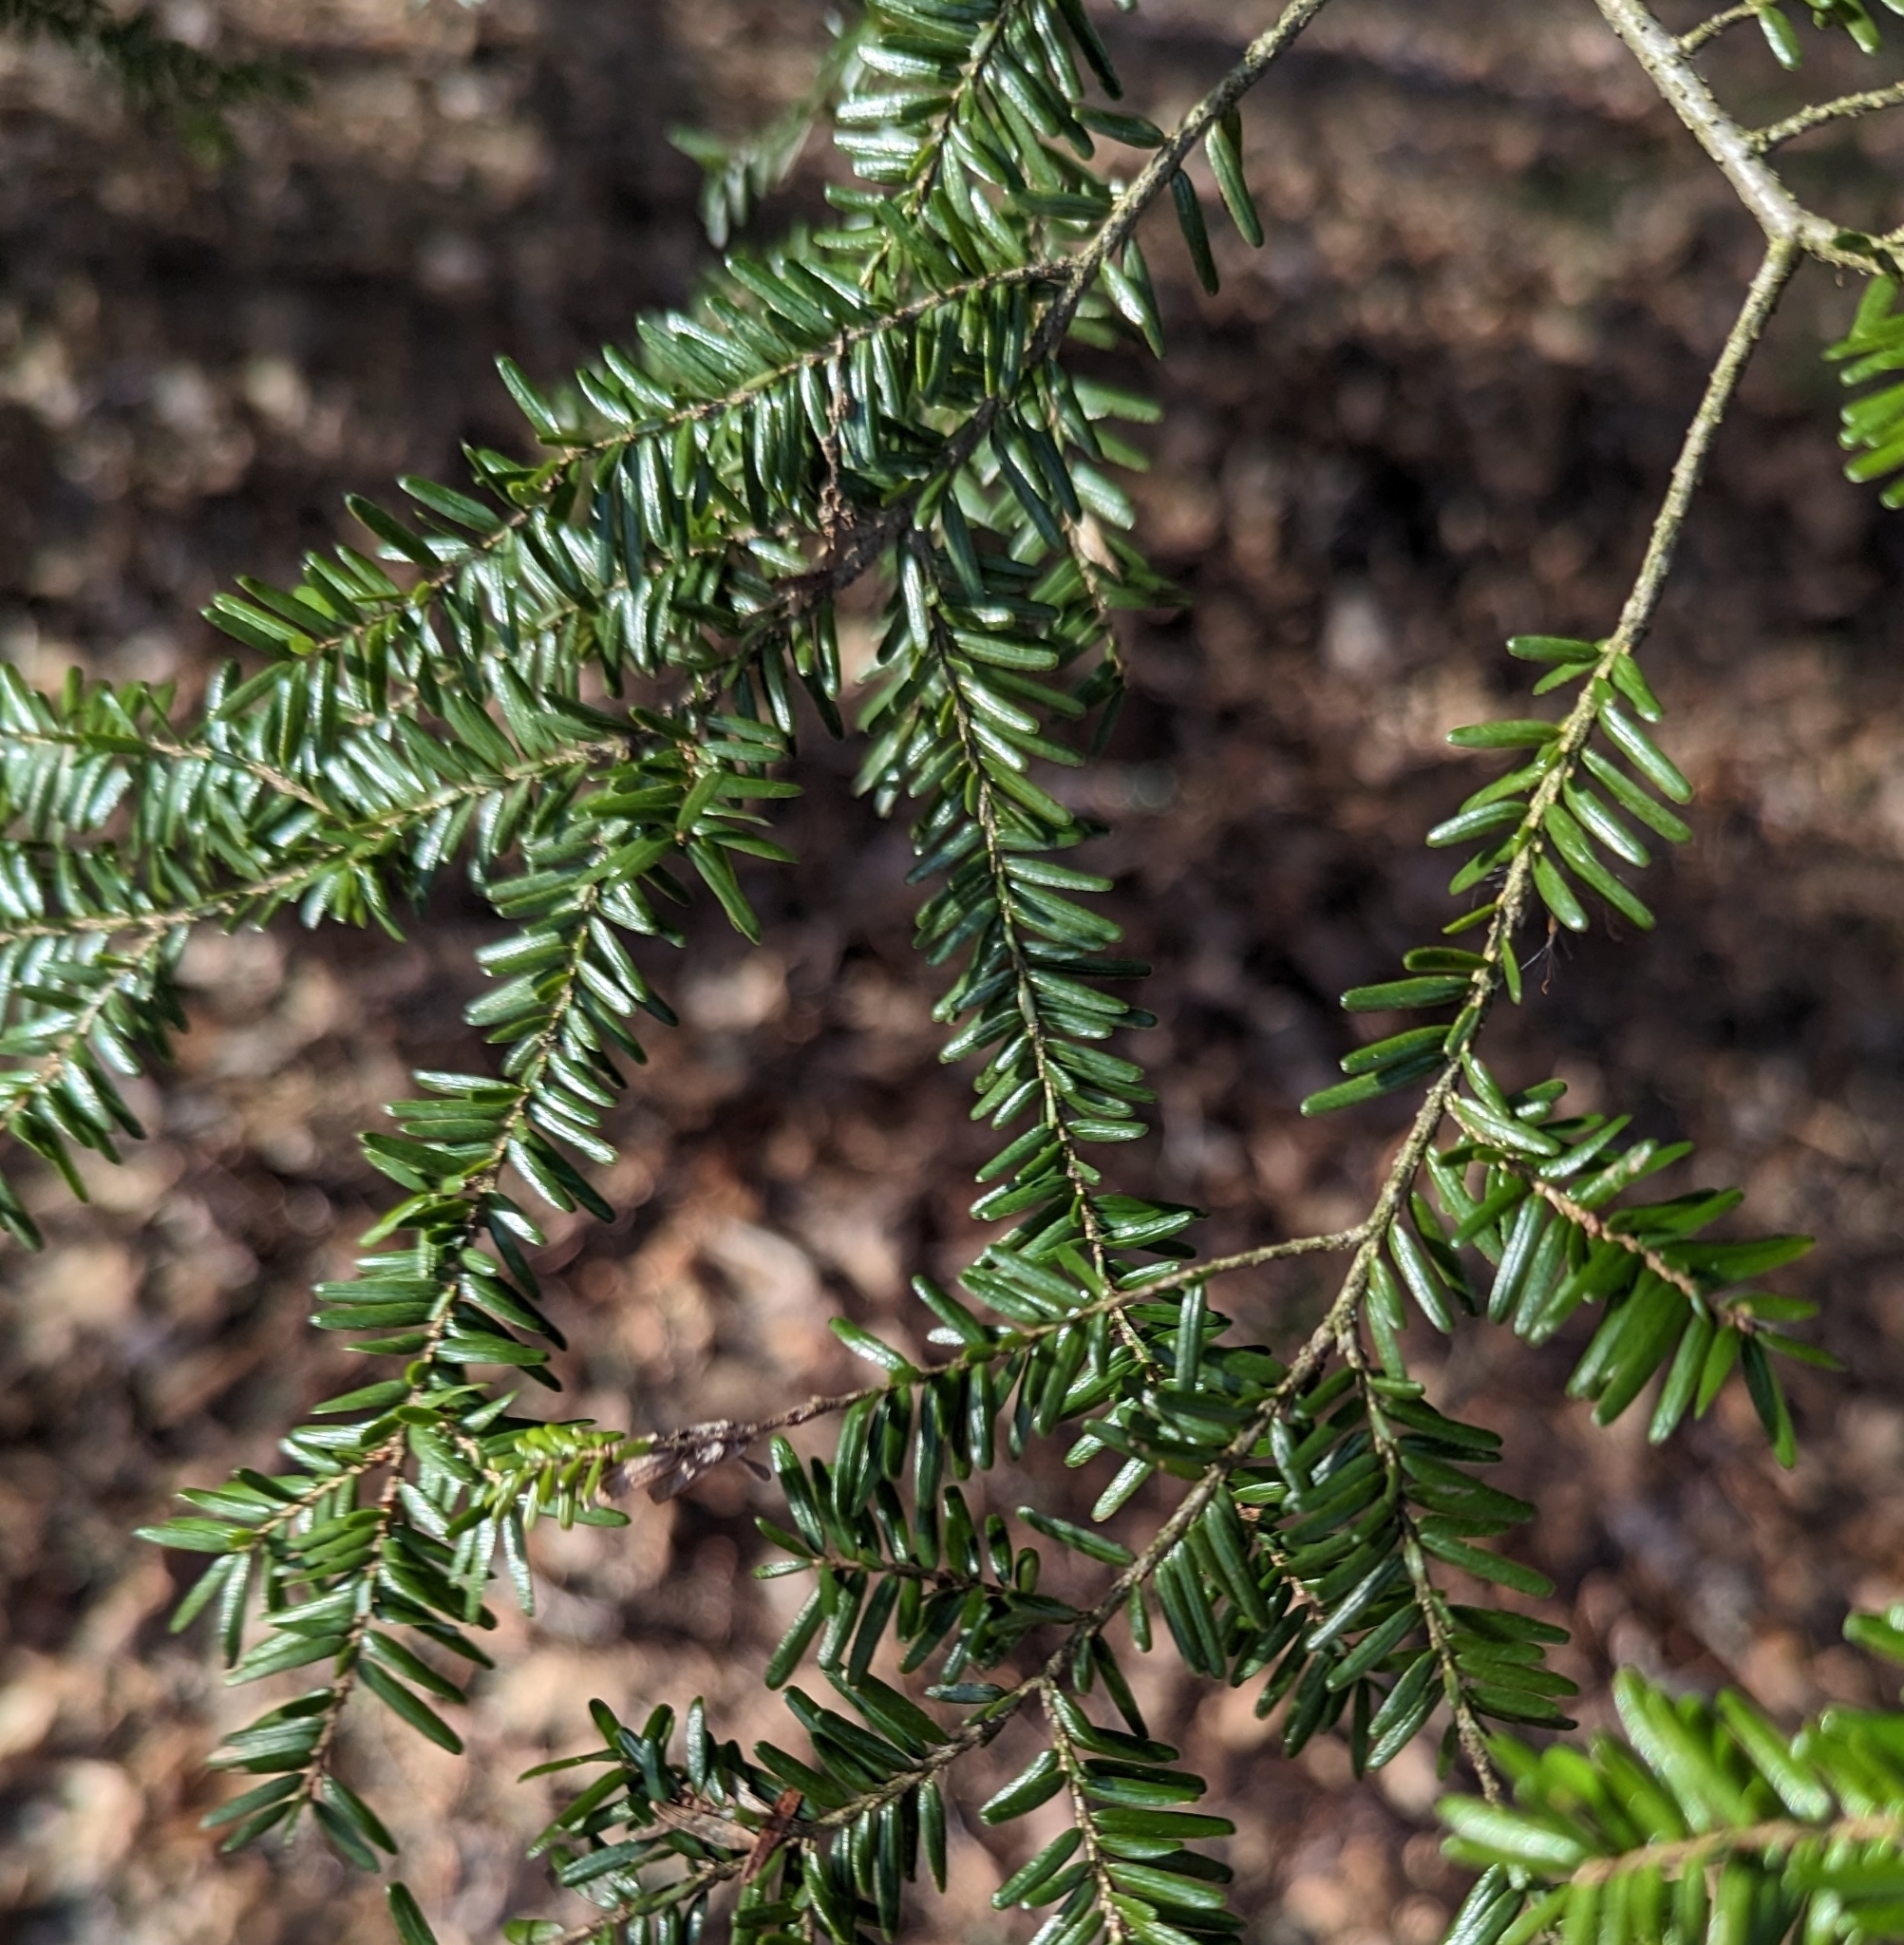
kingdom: Plantae
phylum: Tracheophyta
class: Pinopsida
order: Pinales
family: Pinaceae
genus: Tsuga
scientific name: Tsuga canadensis
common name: Eastern hemlock
